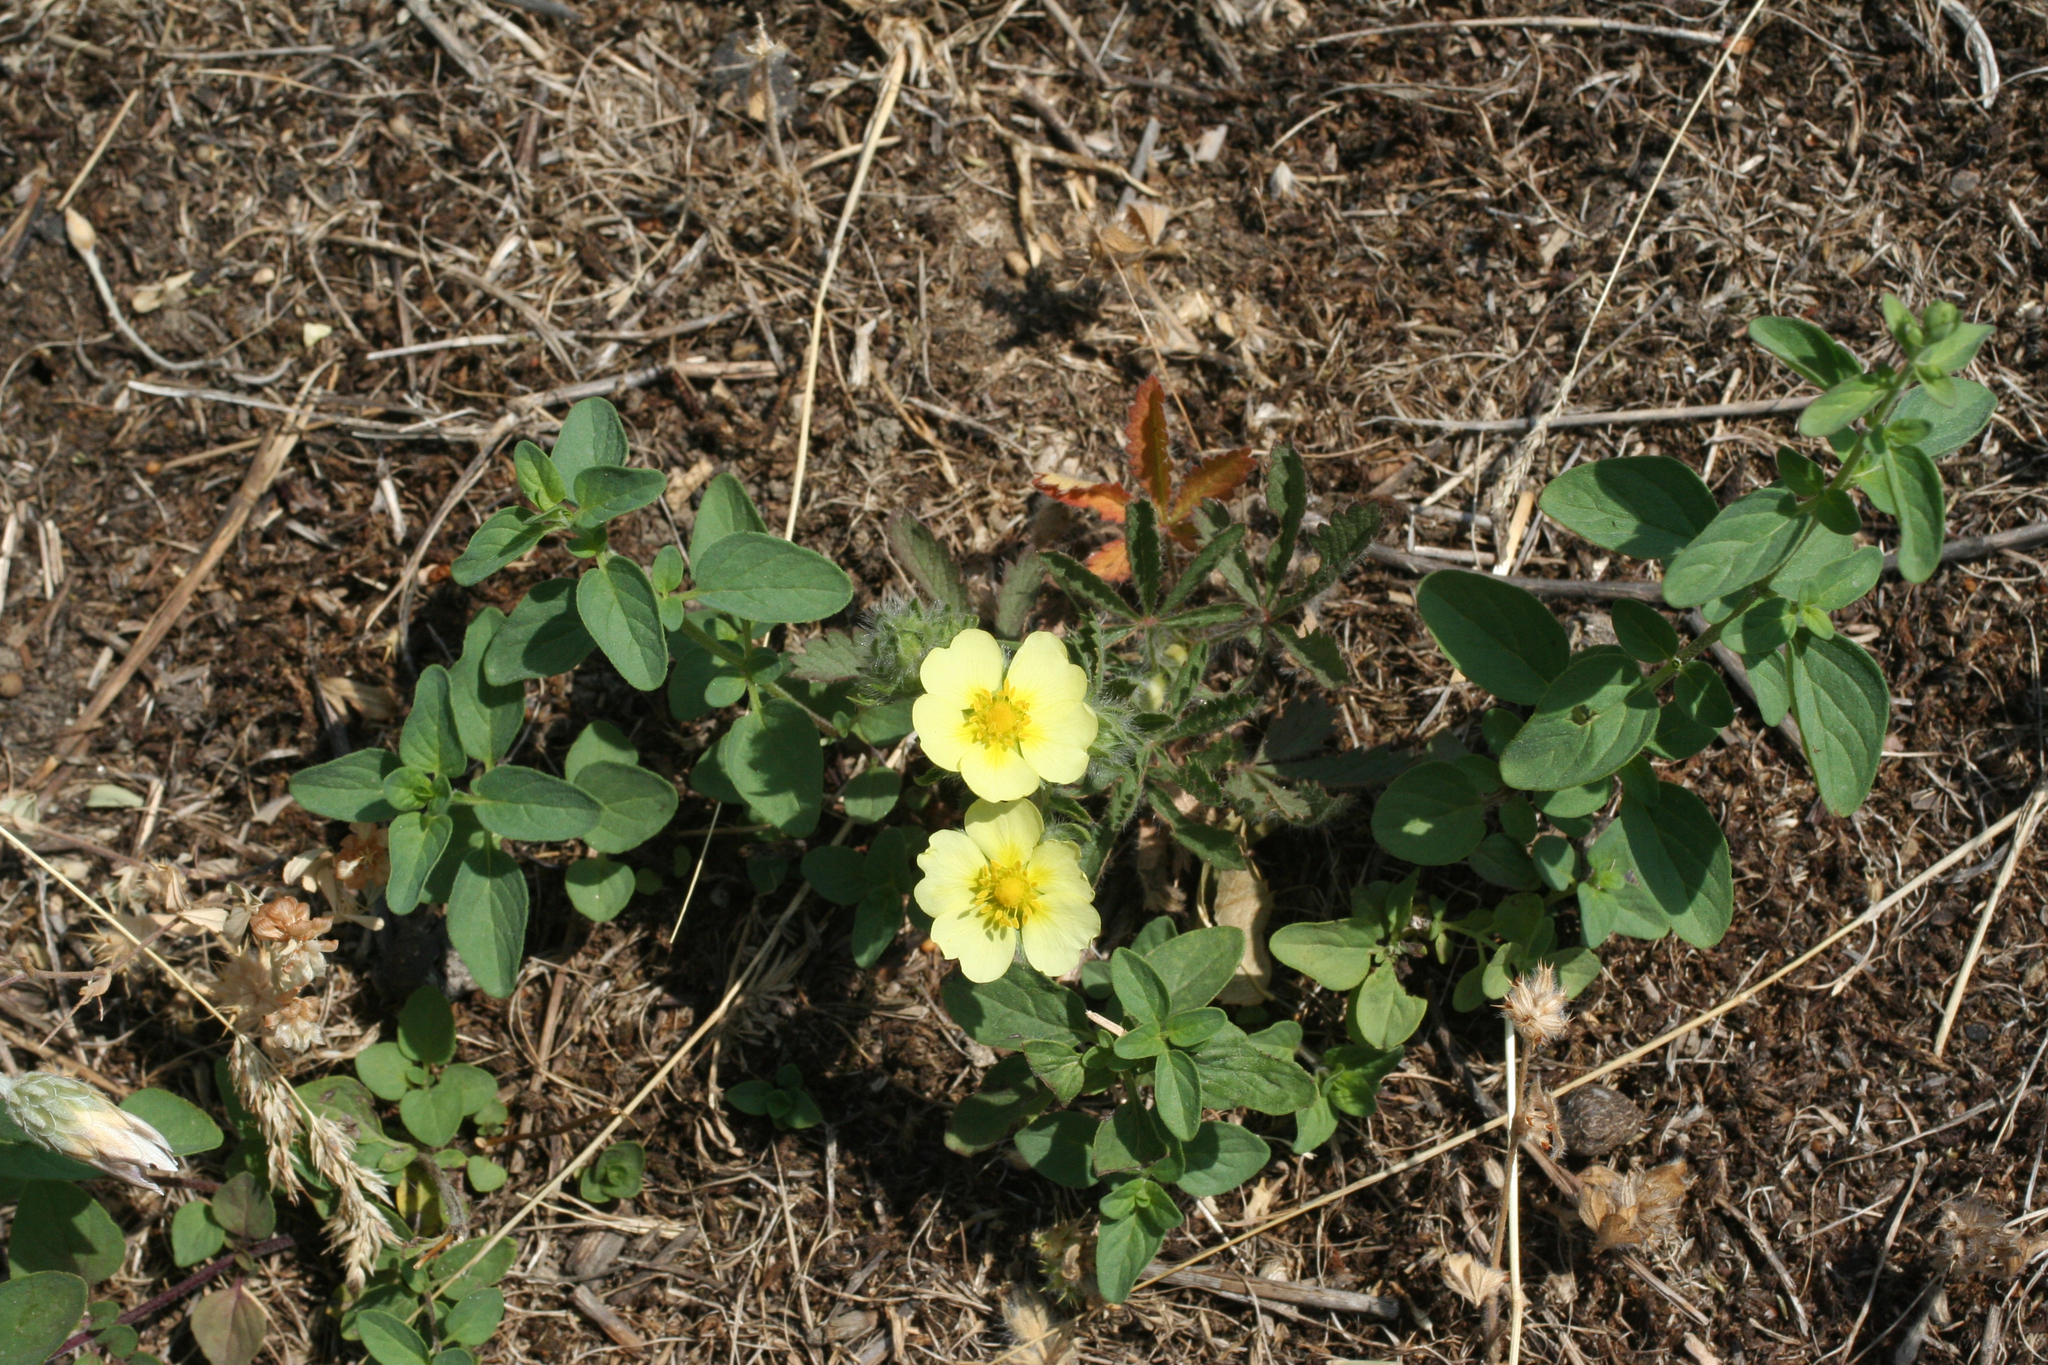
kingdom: Plantae
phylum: Tracheophyta
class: Magnoliopsida
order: Rosales
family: Rosaceae
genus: Potentilla
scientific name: Potentilla recta
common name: Sulphur cinquefoil
